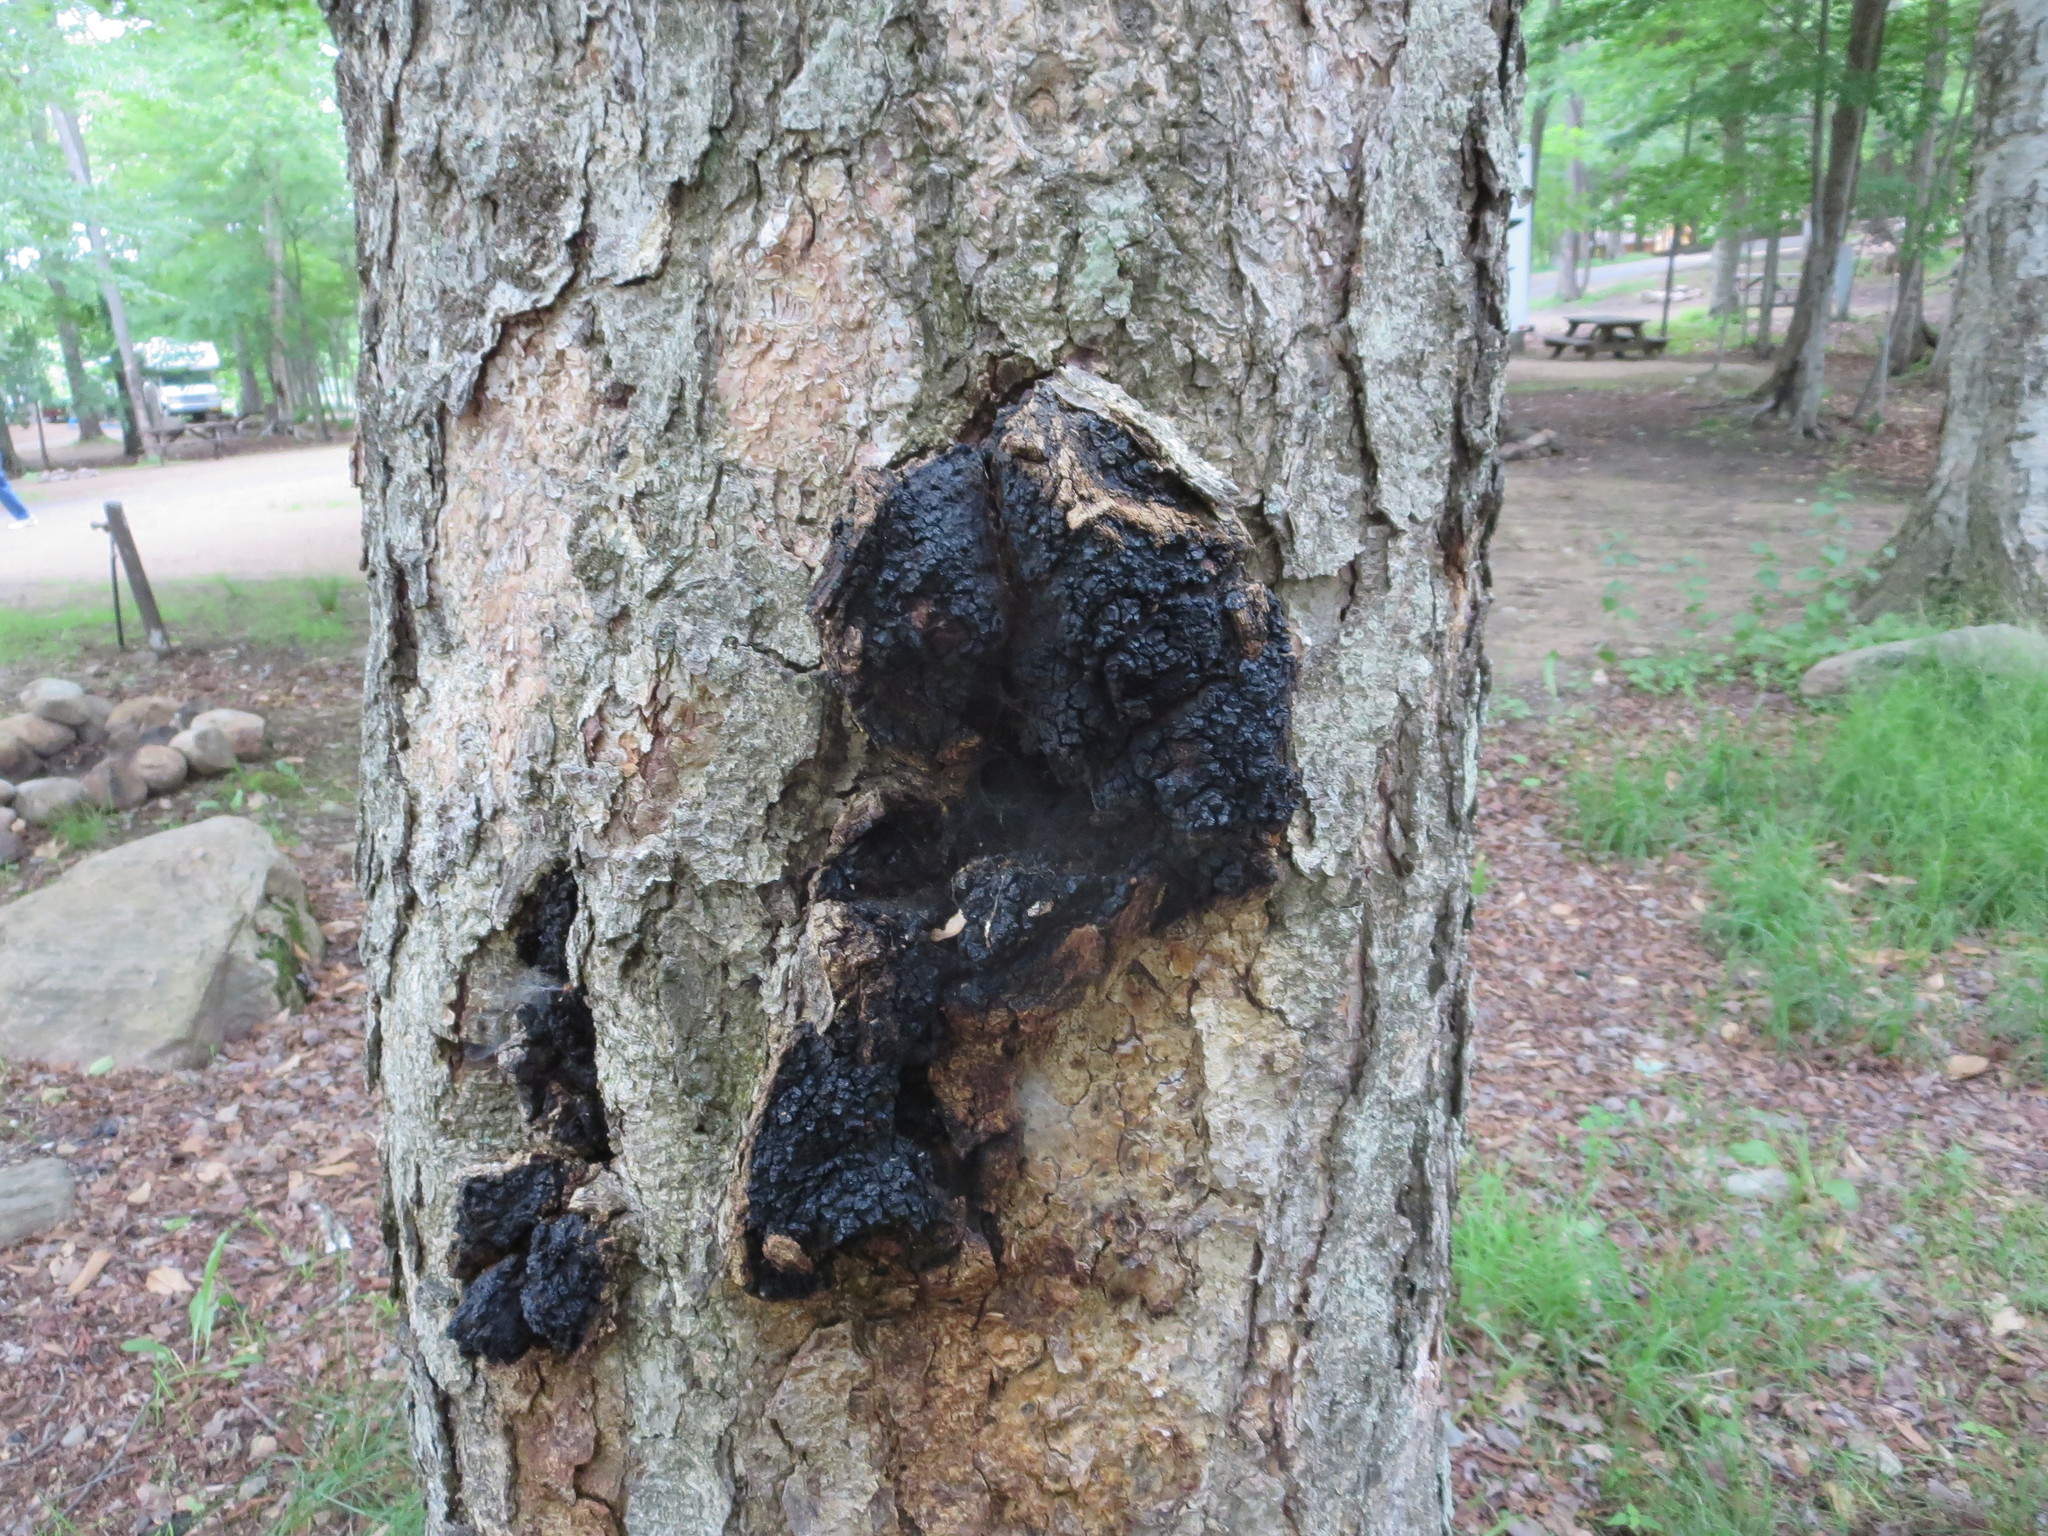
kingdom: Fungi
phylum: Basidiomycota
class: Agaricomycetes
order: Hymenochaetales
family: Hymenochaetaceae
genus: Inonotus
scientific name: Inonotus obliquus
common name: Chaga
